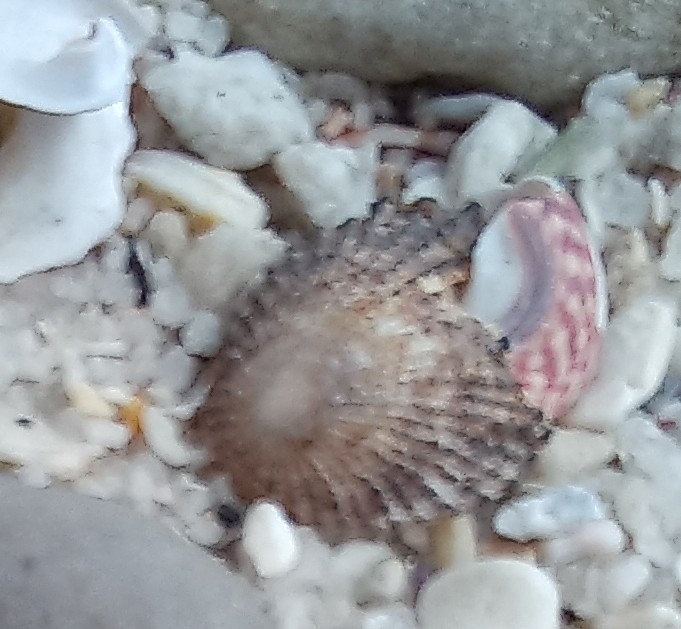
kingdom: Animalia
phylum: Mollusca
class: Gastropoda
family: Patellidae
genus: Helcion
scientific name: Helcion pectunculus
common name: Prickly limpet
